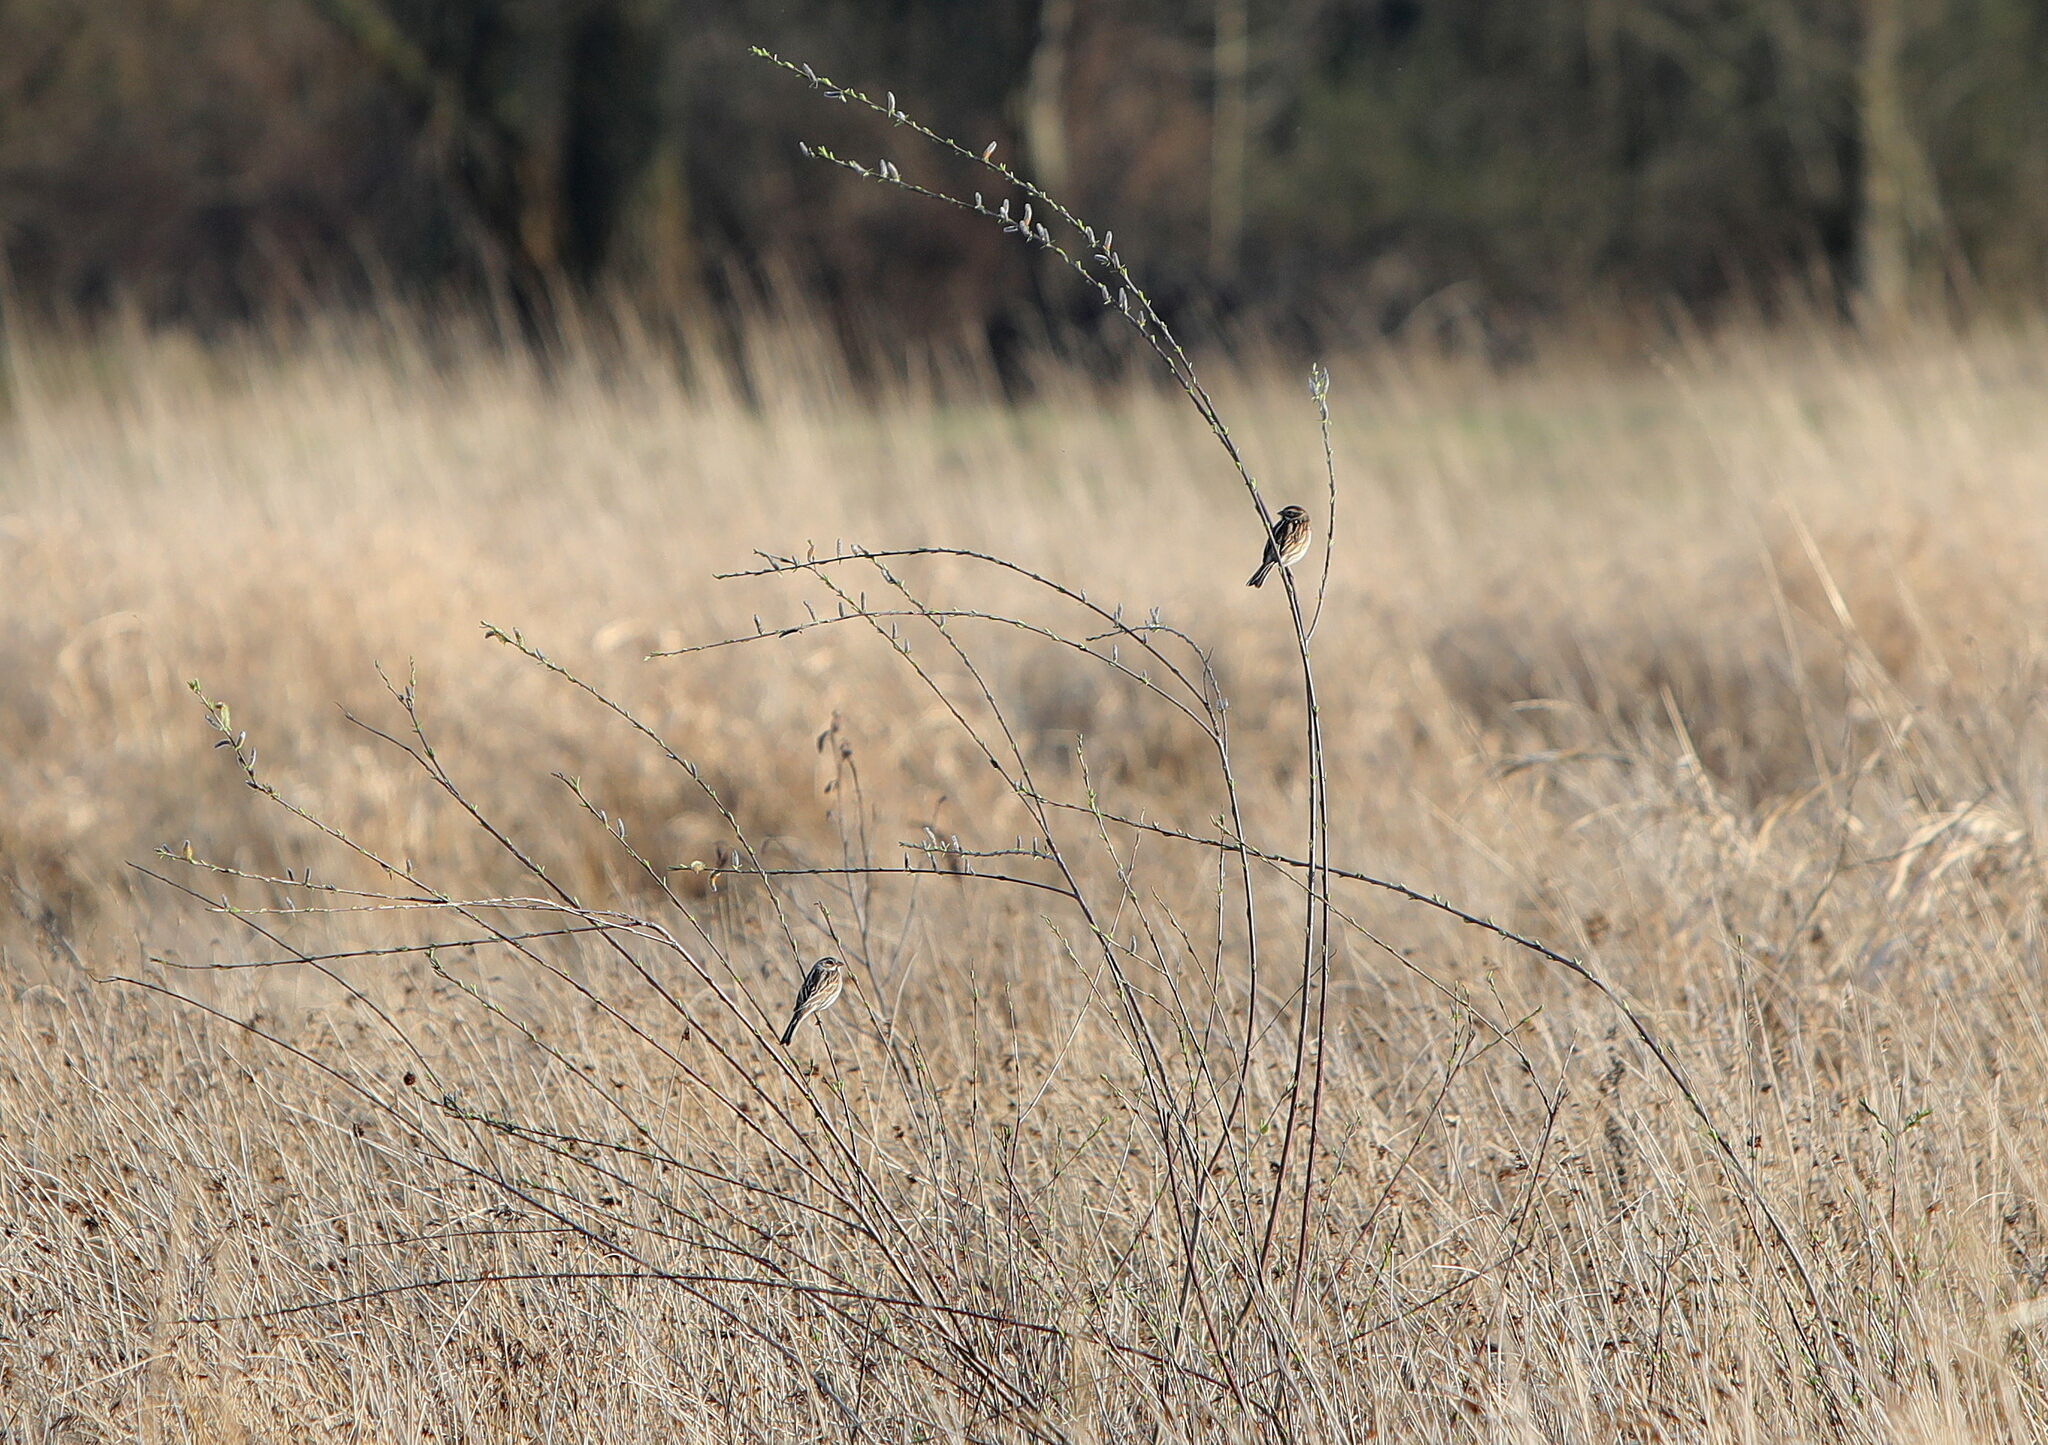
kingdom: Animalia
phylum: Chordata
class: Aves
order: Passeriformes
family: Emberizidae
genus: Emberiza
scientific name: Emberiza schoeniclus
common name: Reed bunting
